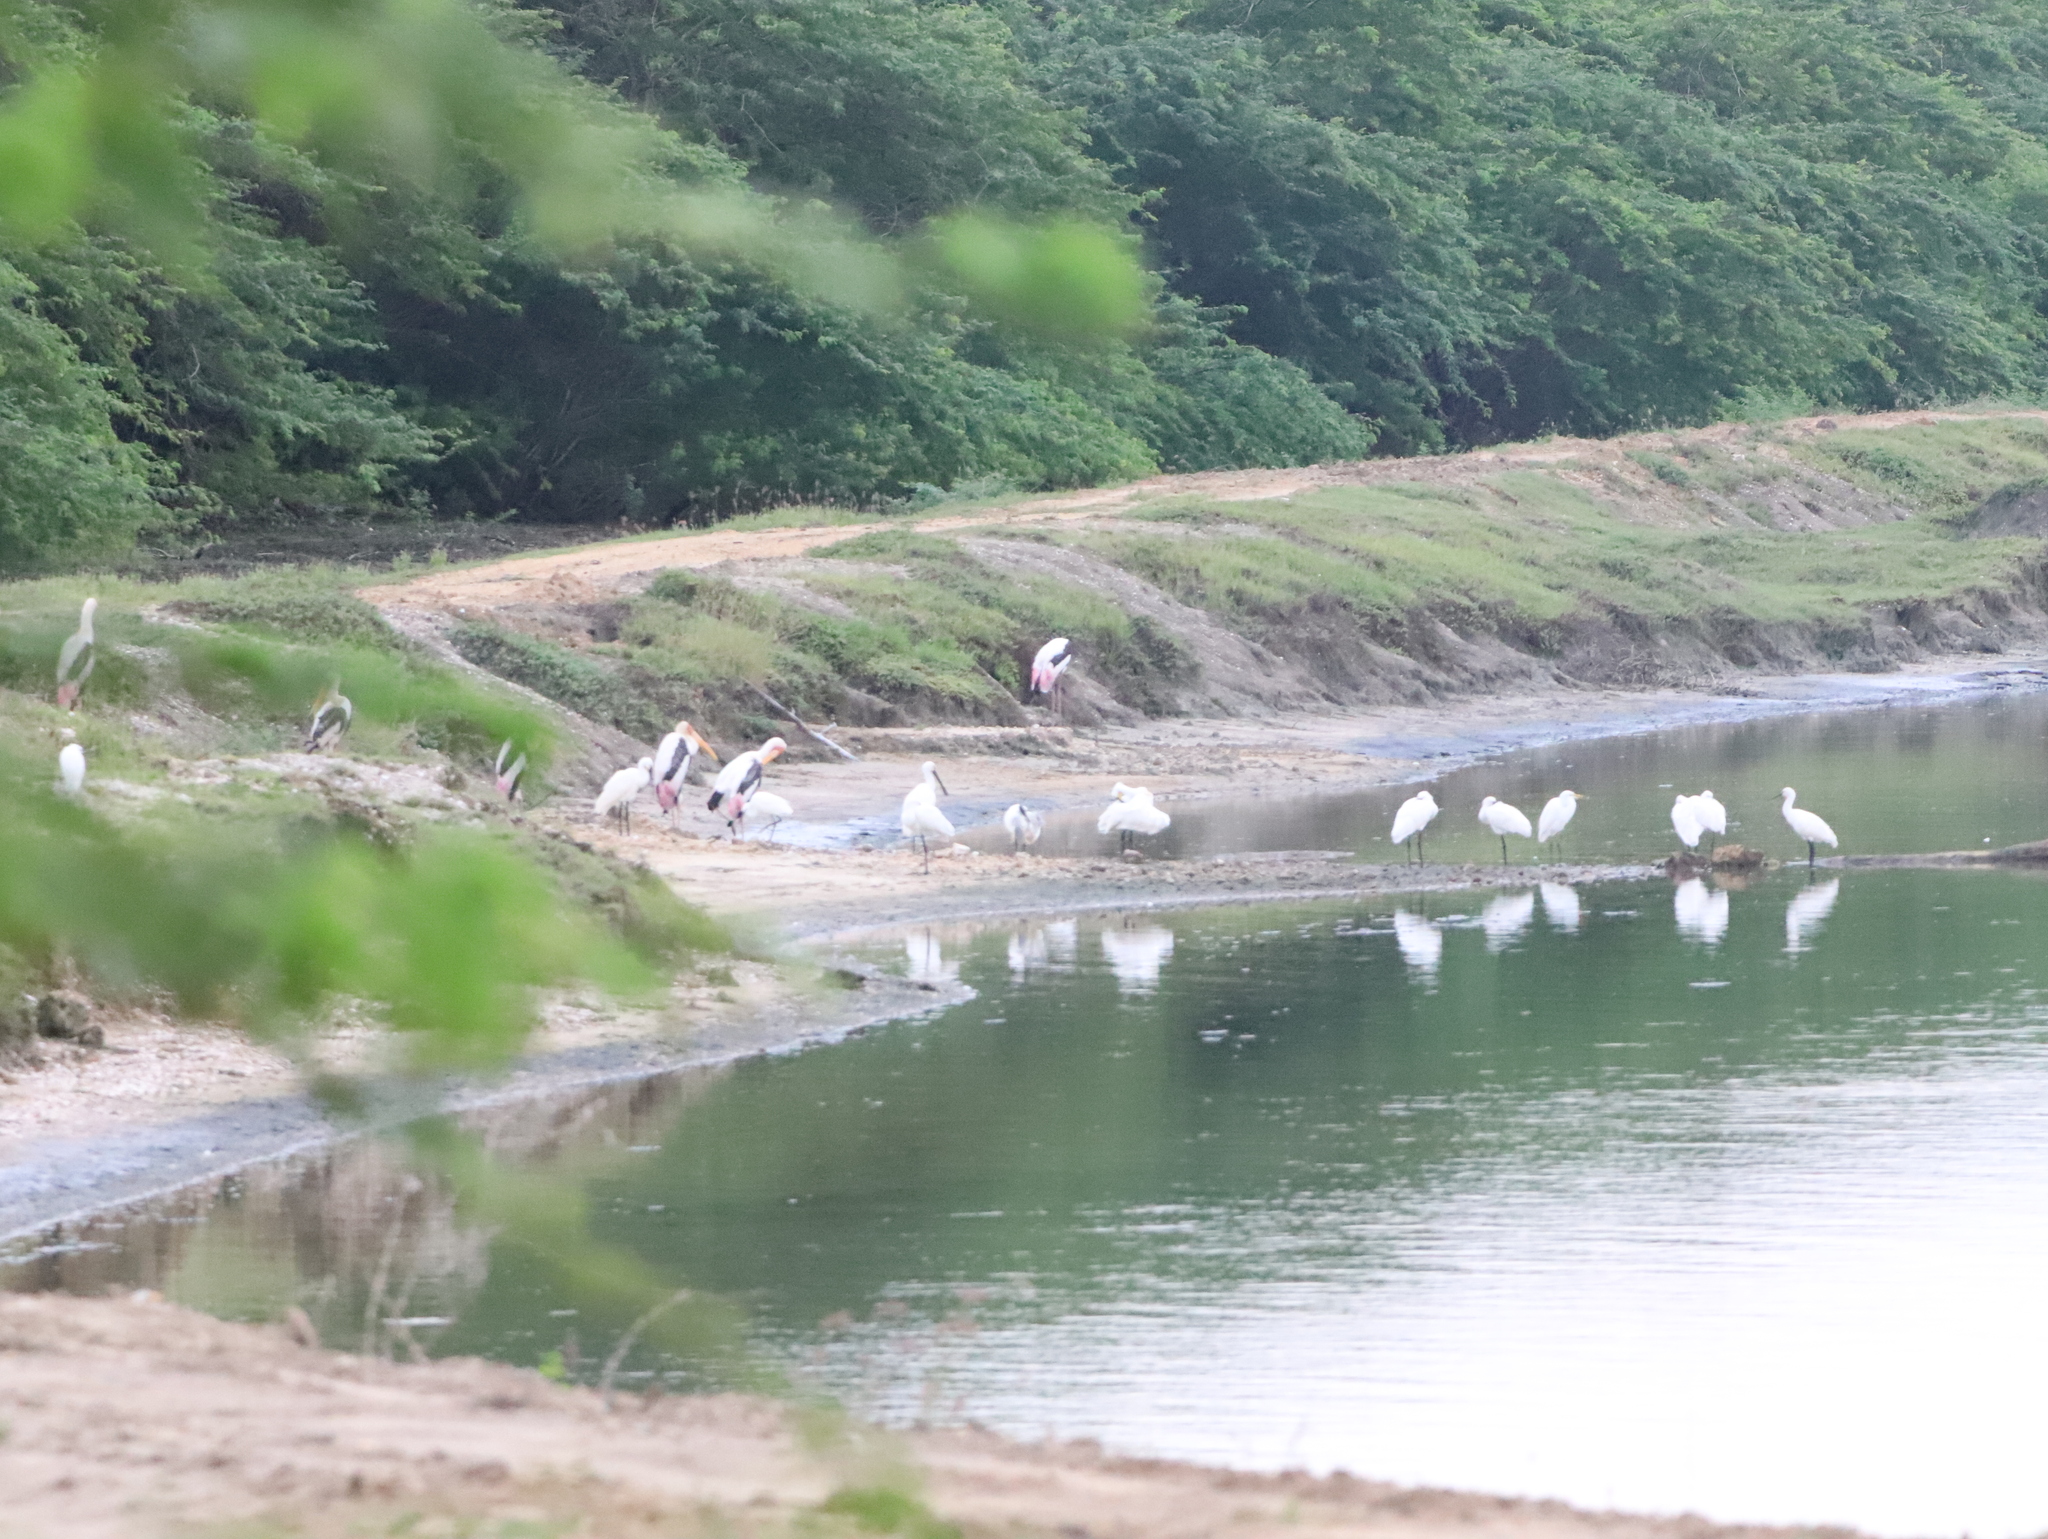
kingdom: Animalia
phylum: Chordata
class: Aves
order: Ciconiiformes
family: Ciconiidae
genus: Mycteria
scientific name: Mycteria leucocephala
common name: Painted stork
